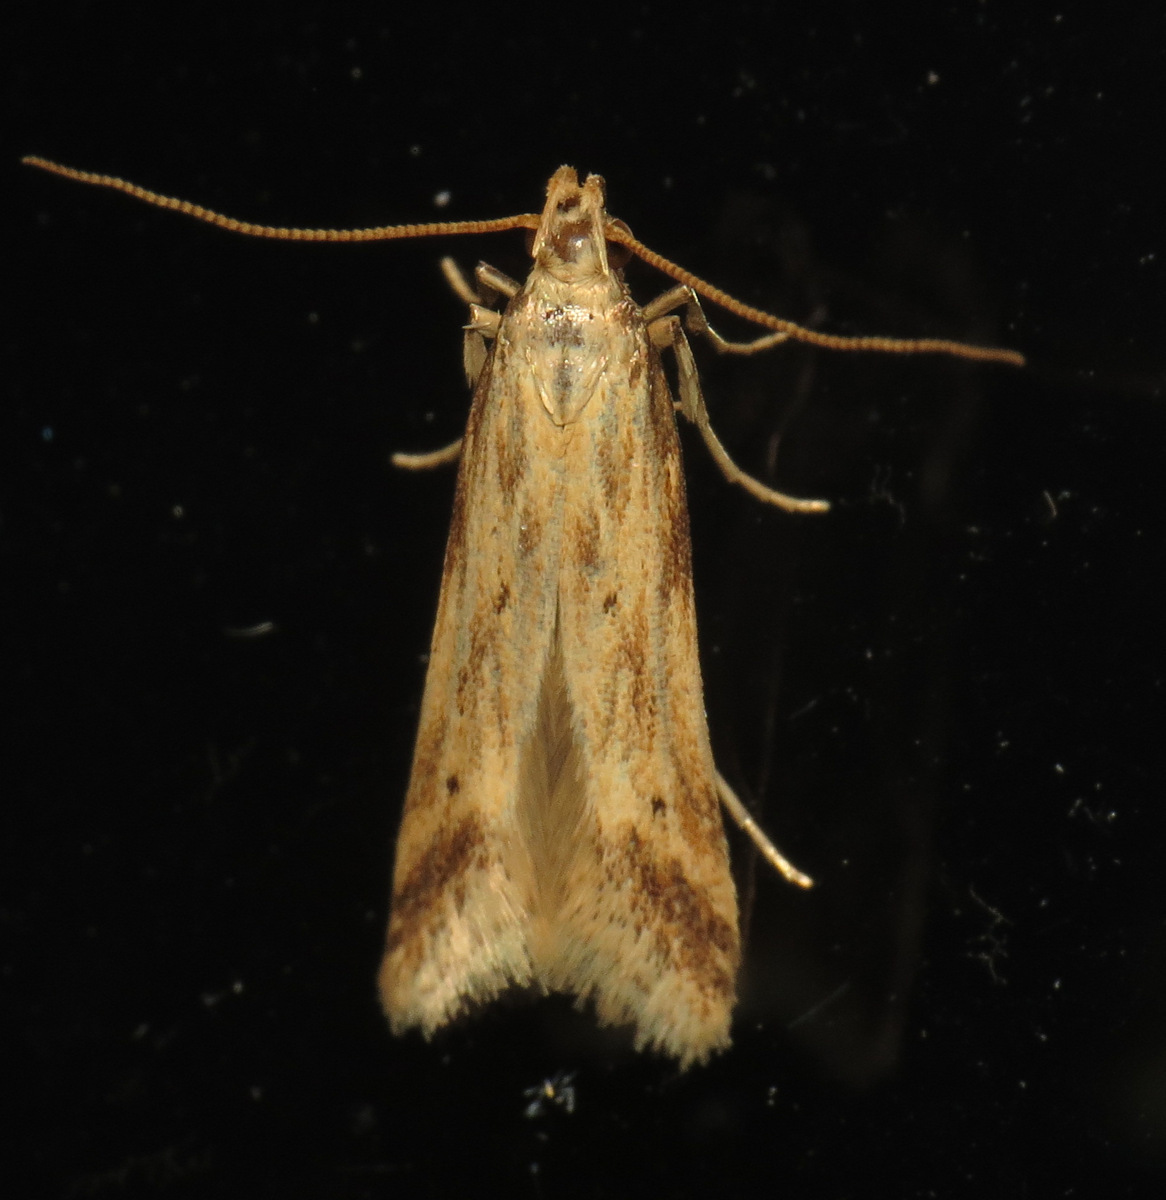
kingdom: Animalia
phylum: Arthropoda
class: Insecta
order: Lepidoptera
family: Gelechiidae
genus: Metzneria
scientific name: Metzneria lappella
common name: Burdock neb
